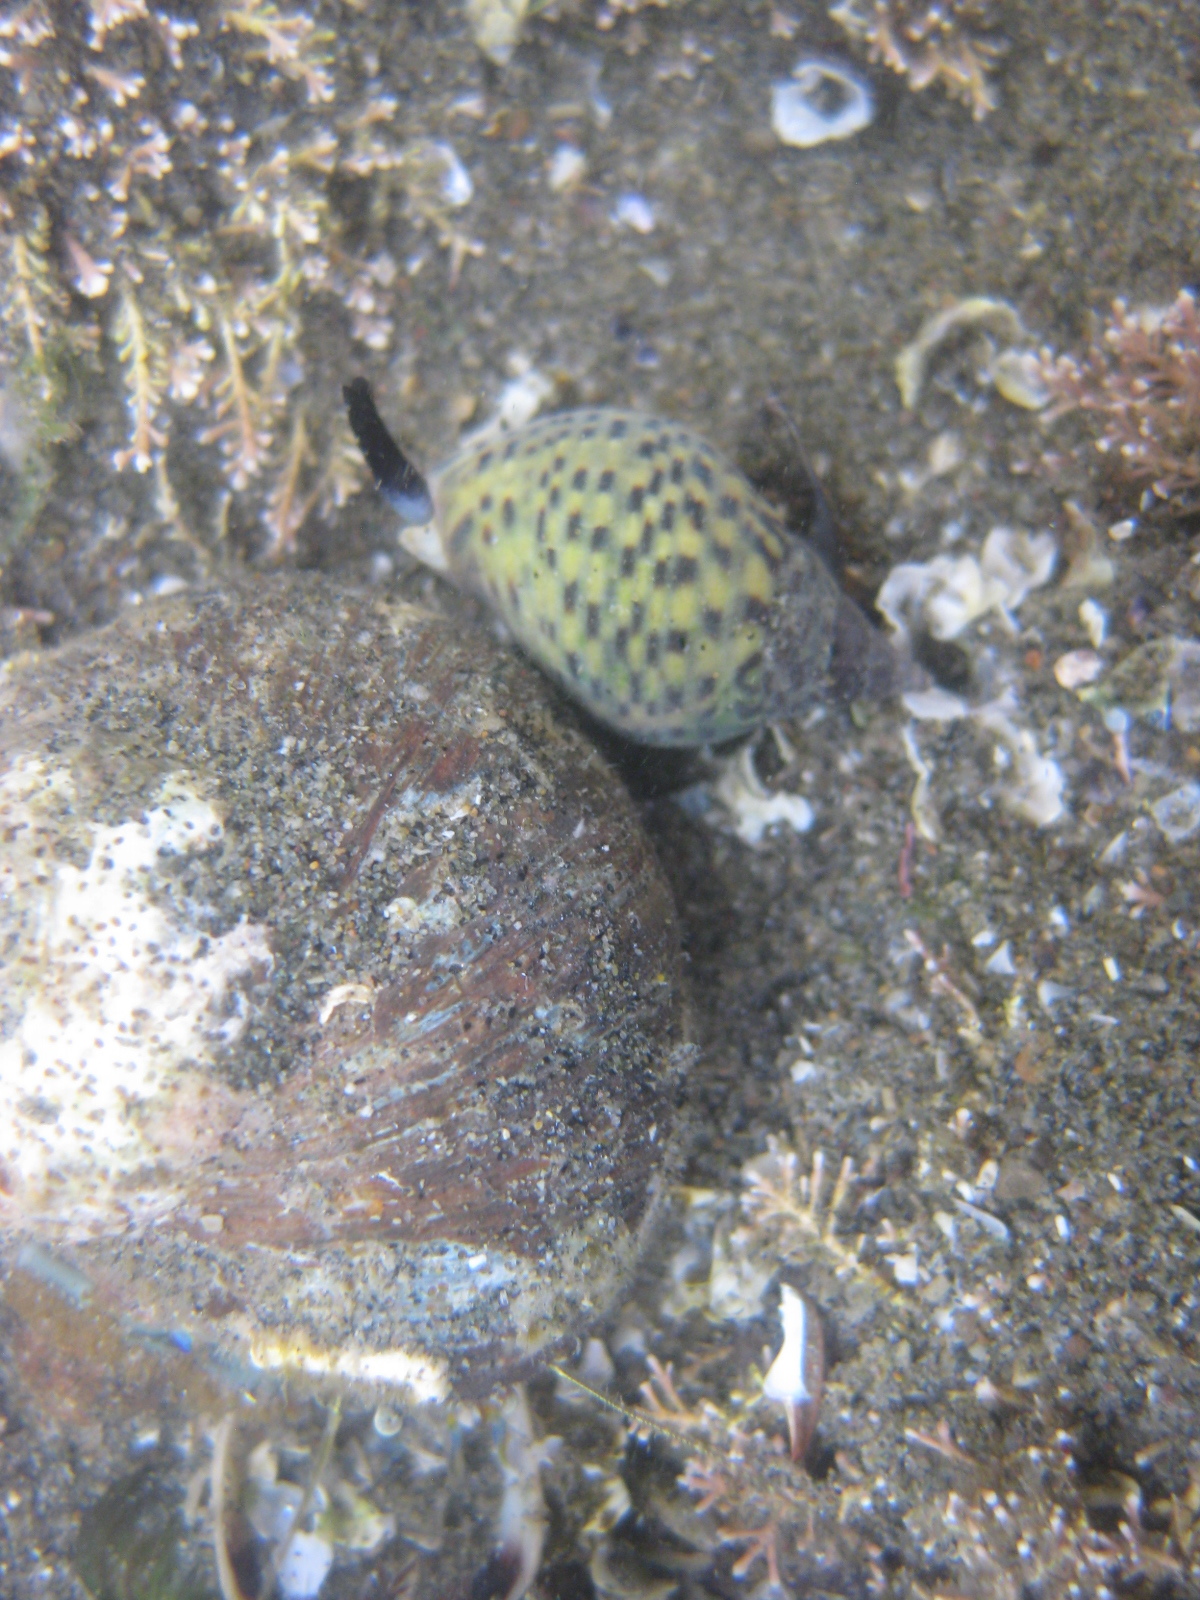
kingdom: Animalia
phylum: Mollusca
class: Gastropoda
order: Neogastropoda
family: Cominellidae
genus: Cominella
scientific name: Cominella maculosa
